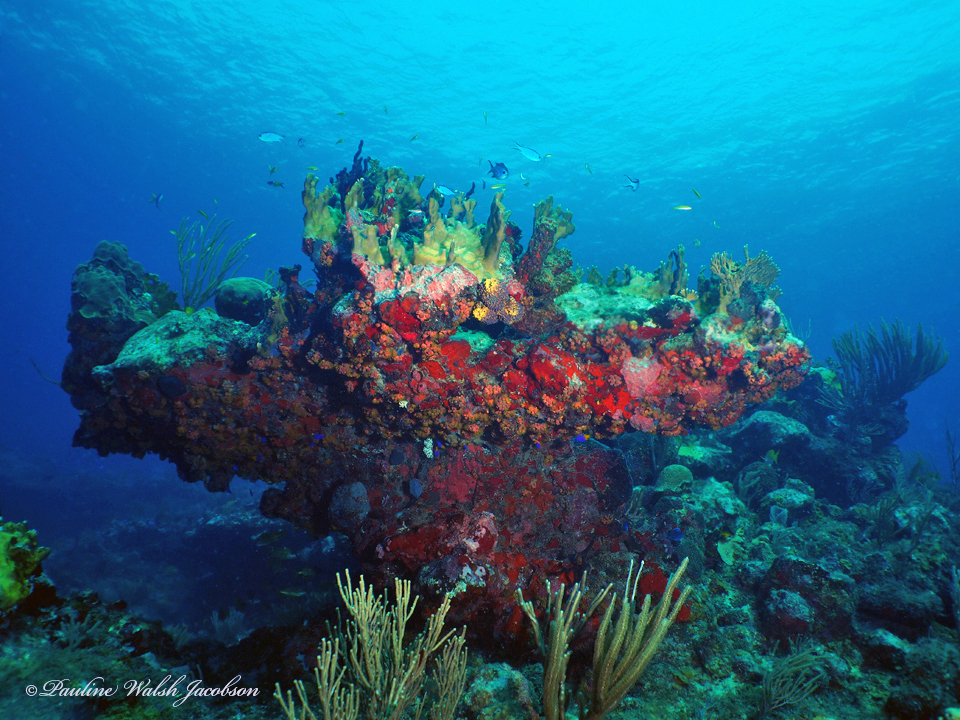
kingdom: Animalia
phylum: Chordata
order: Perciformes
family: Pomacentridae
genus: Chromis
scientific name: Chromis cyanea
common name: Blue chromis
